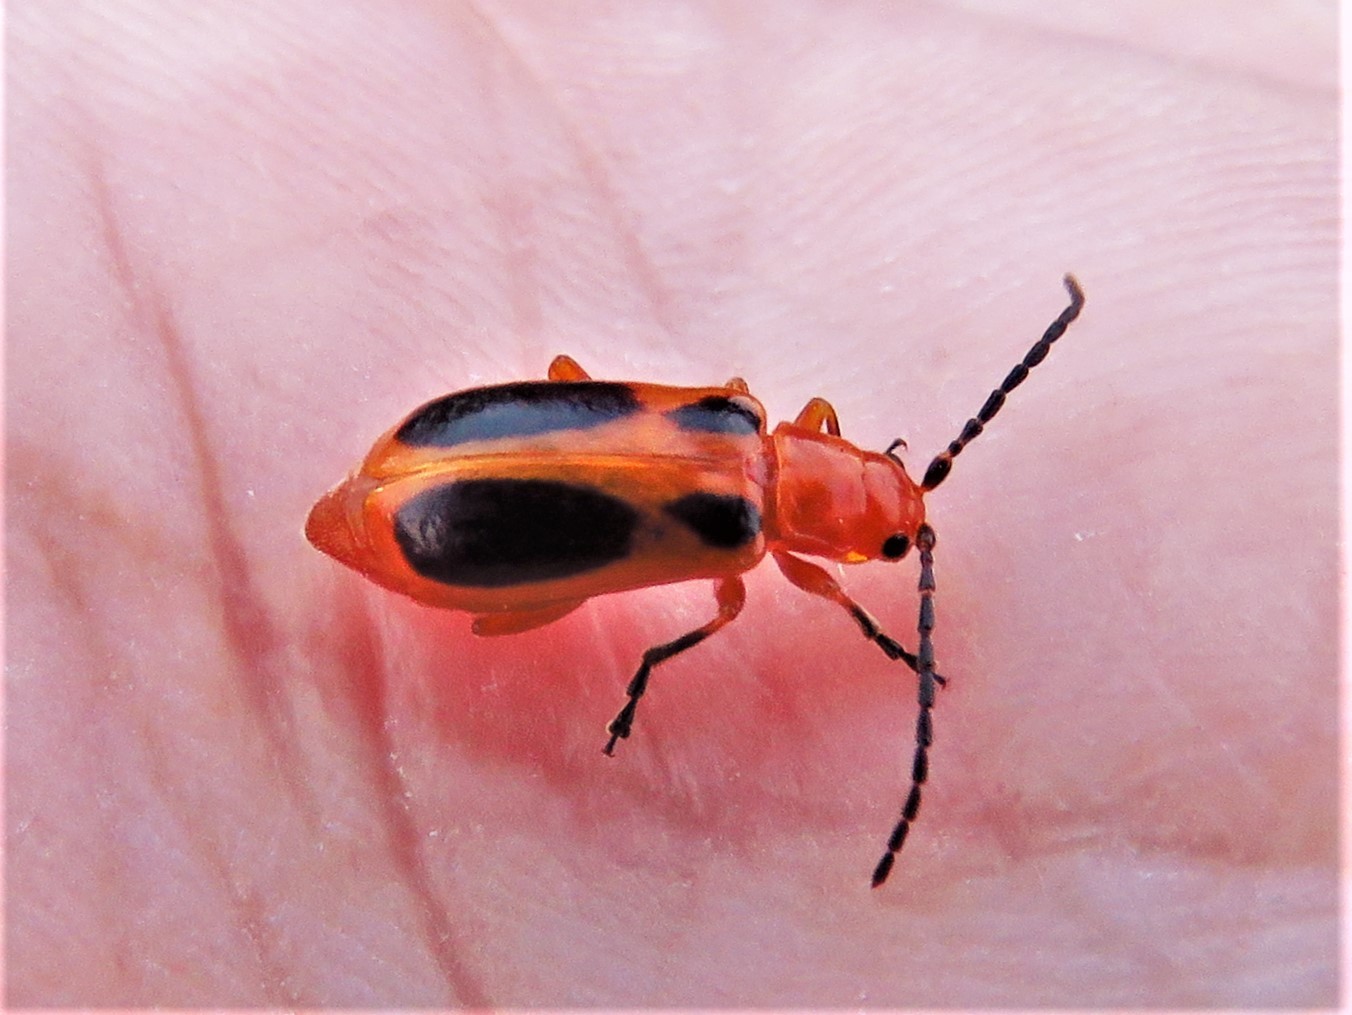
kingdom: Animalia
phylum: Arthropoda
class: Insecta
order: Coleoptera
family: Chrysomelidae
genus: Phyllobrotica
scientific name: Phyllobrotica sororia
